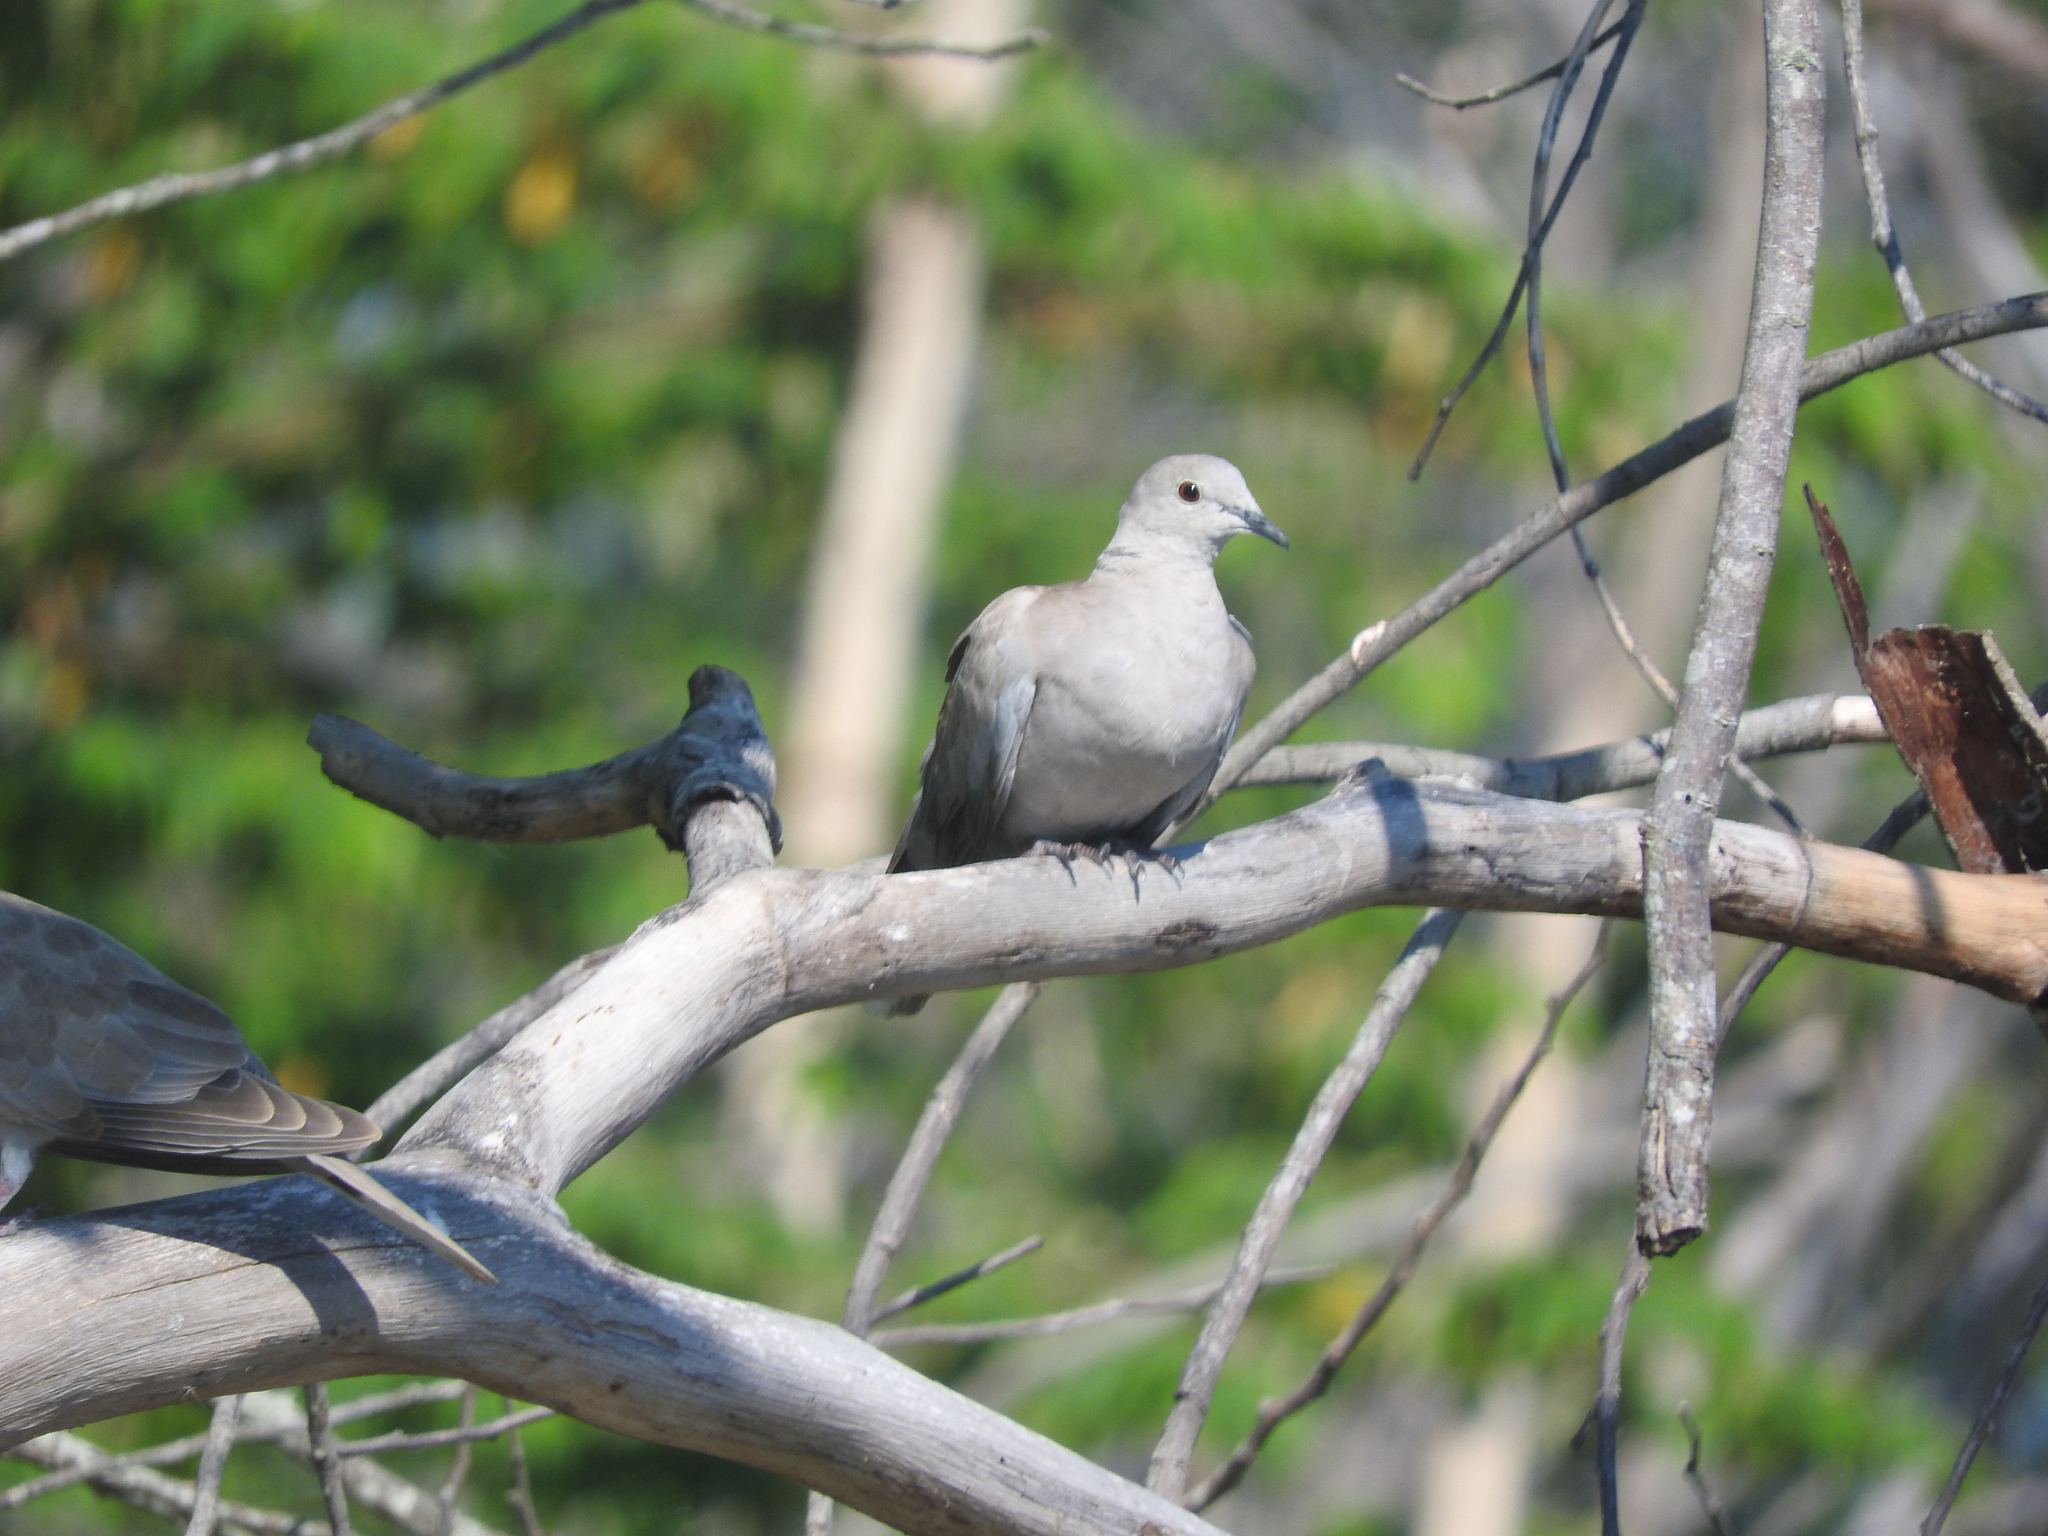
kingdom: Animalia
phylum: Chordata
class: Aves
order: Columbiformes
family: Columbidae
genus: Streptopelia
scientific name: Streptopelia decaocto
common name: Eurasian collared dove
